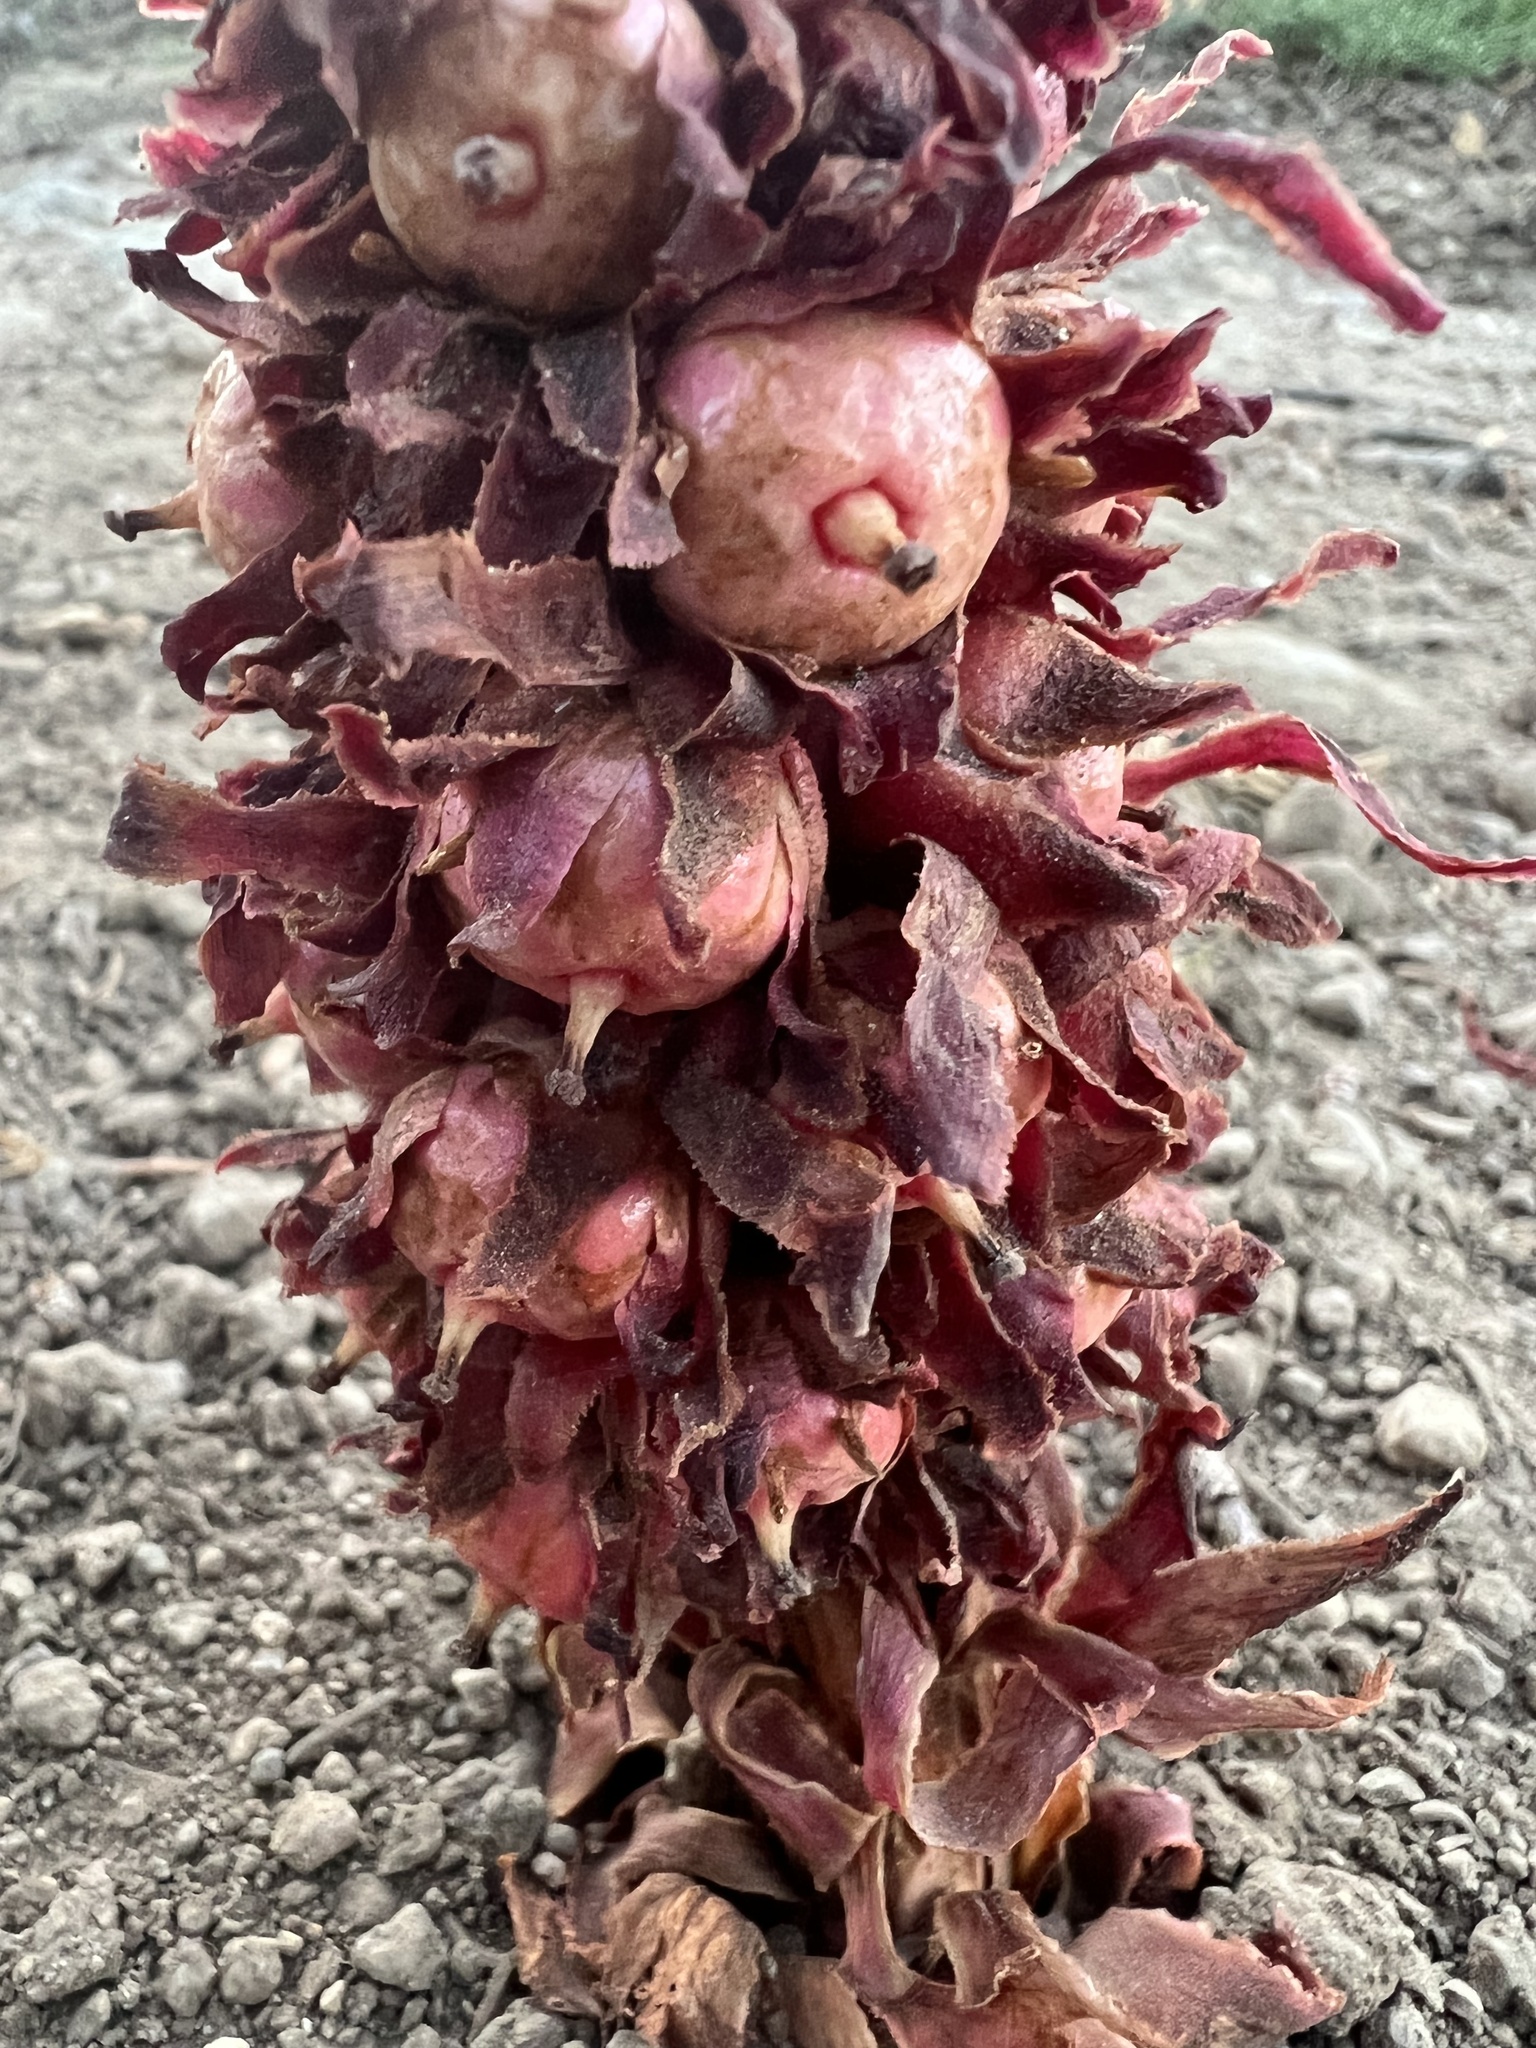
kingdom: Plantae
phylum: Tracheophyta
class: Magnoliopsida
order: Ericales
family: Ericaceae
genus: Sarcodes
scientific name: Sarcodes sanguinea
